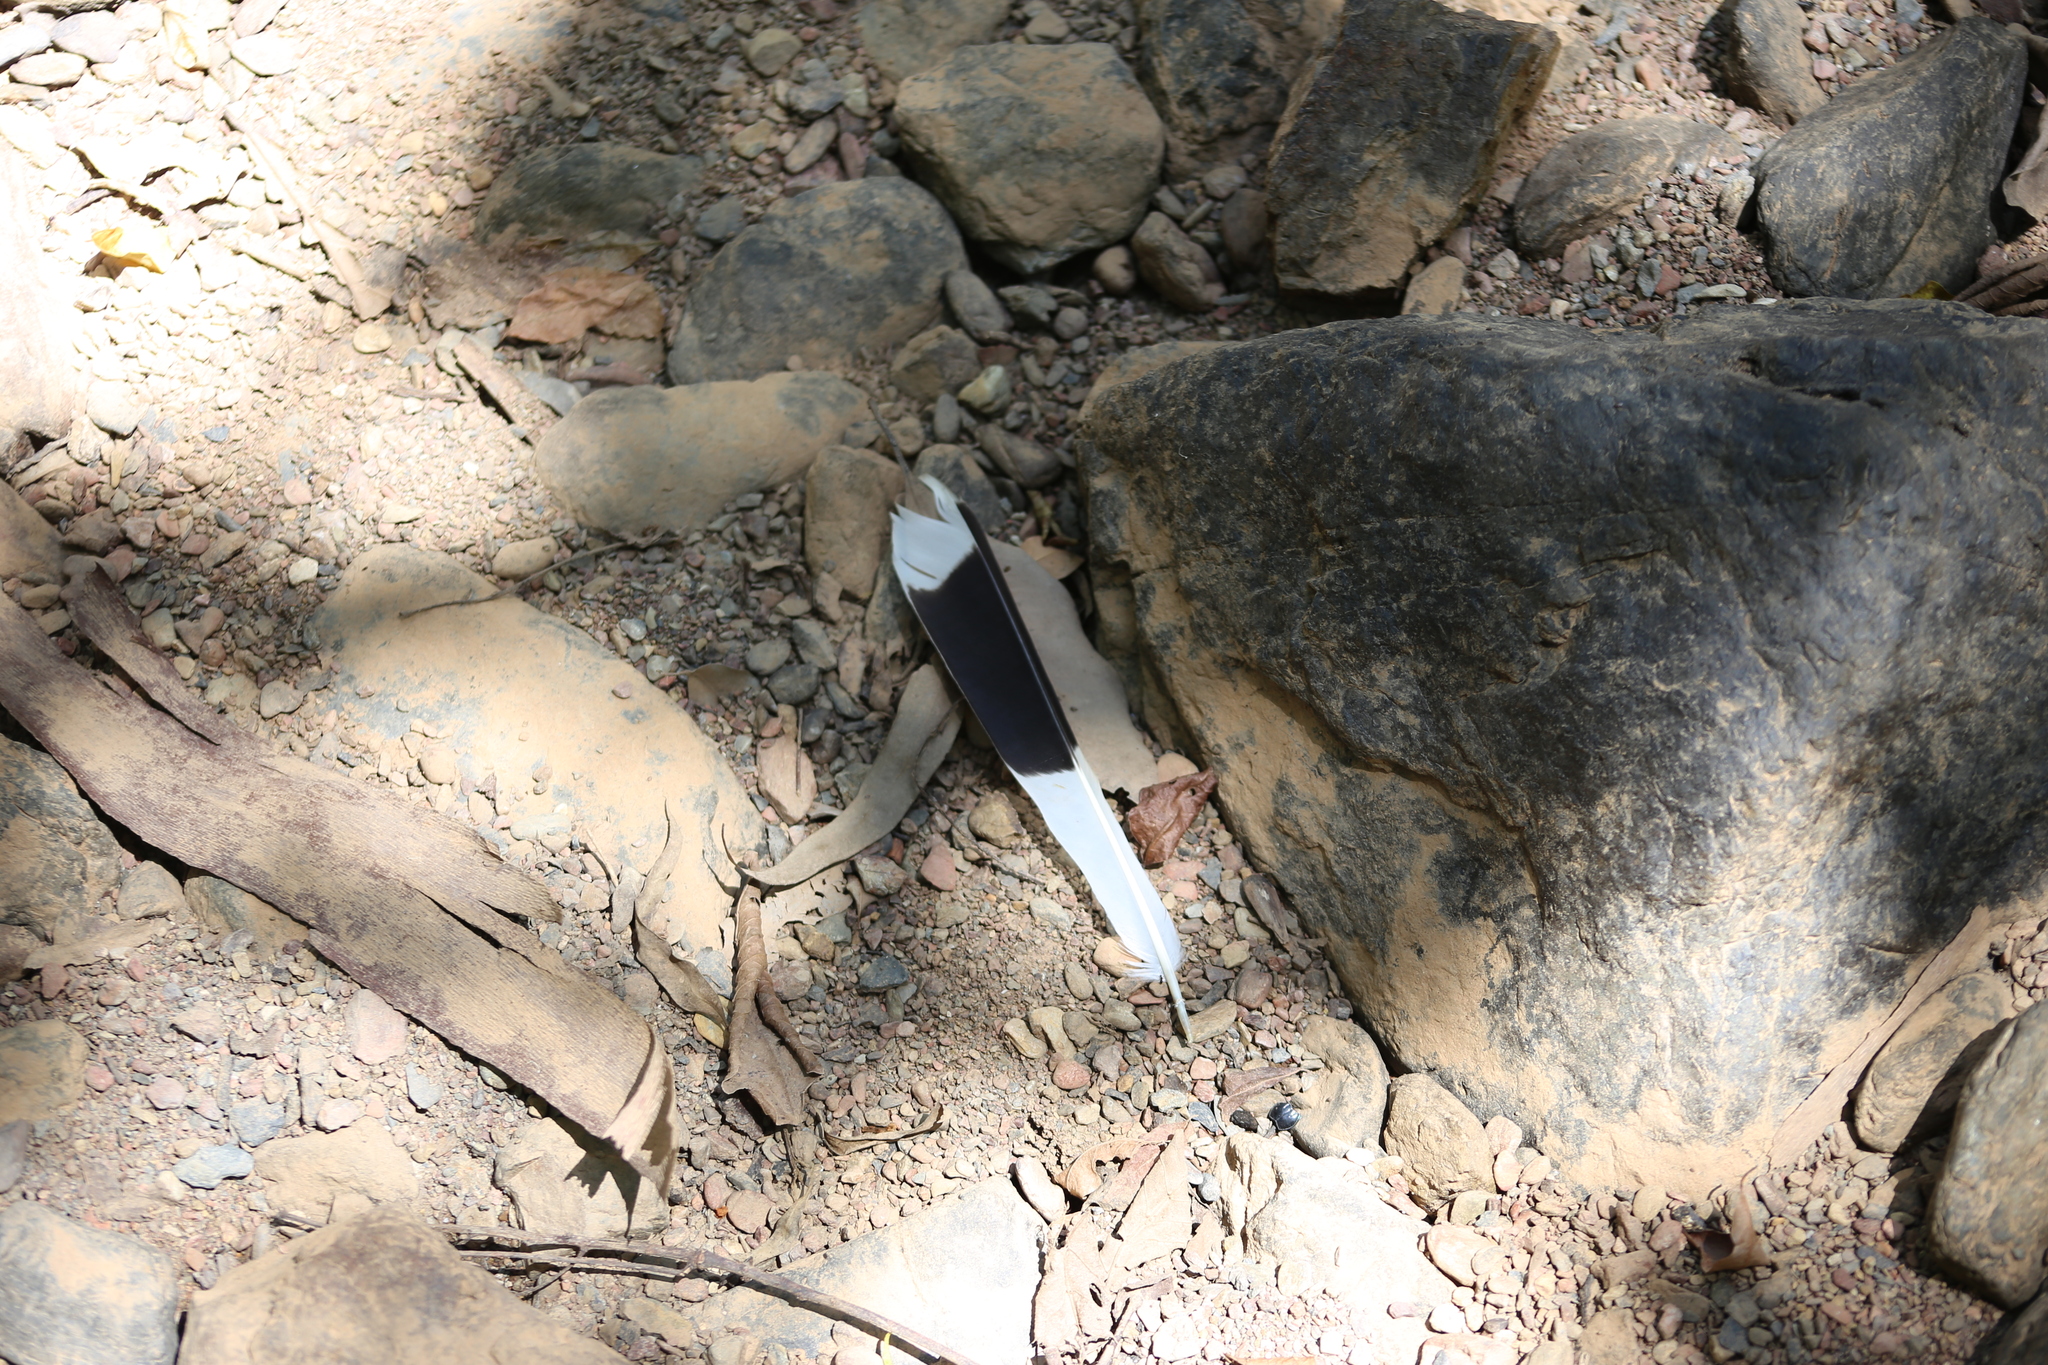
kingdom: Animalia
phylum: Chordata
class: Aves
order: Passeriformes
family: Monarchidae
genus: Grallina
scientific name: Grallina cyanoleuca
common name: Magpie-lark
